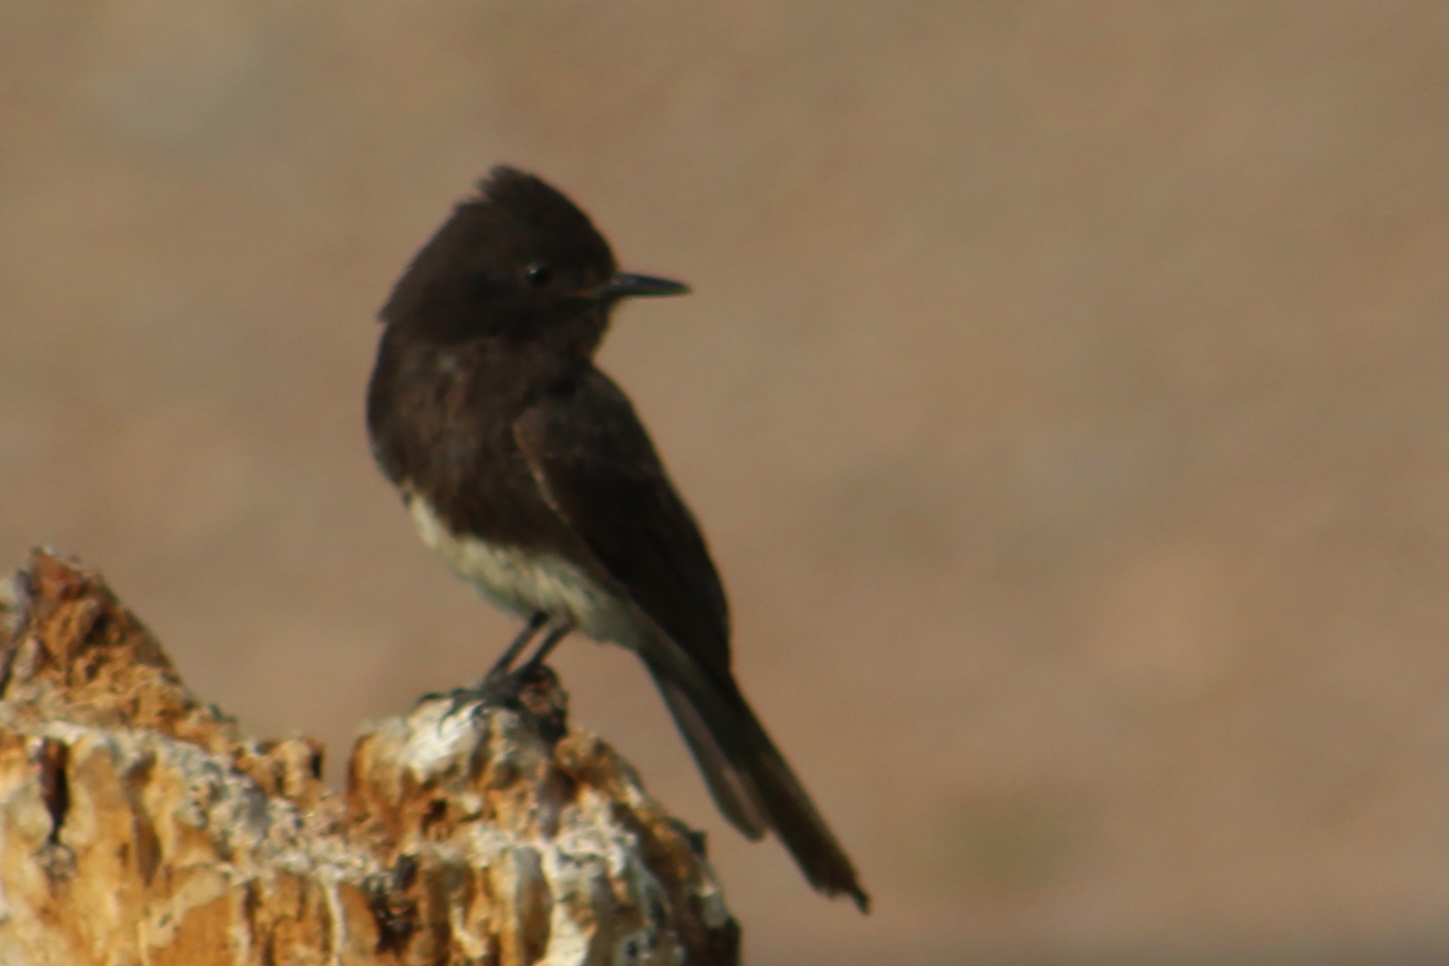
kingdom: Animalia
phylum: Chordata
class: Aves
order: Passeriformes
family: Tyrannidae
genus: Sayornis
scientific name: Sayornis nigricans
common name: Black phoebe
